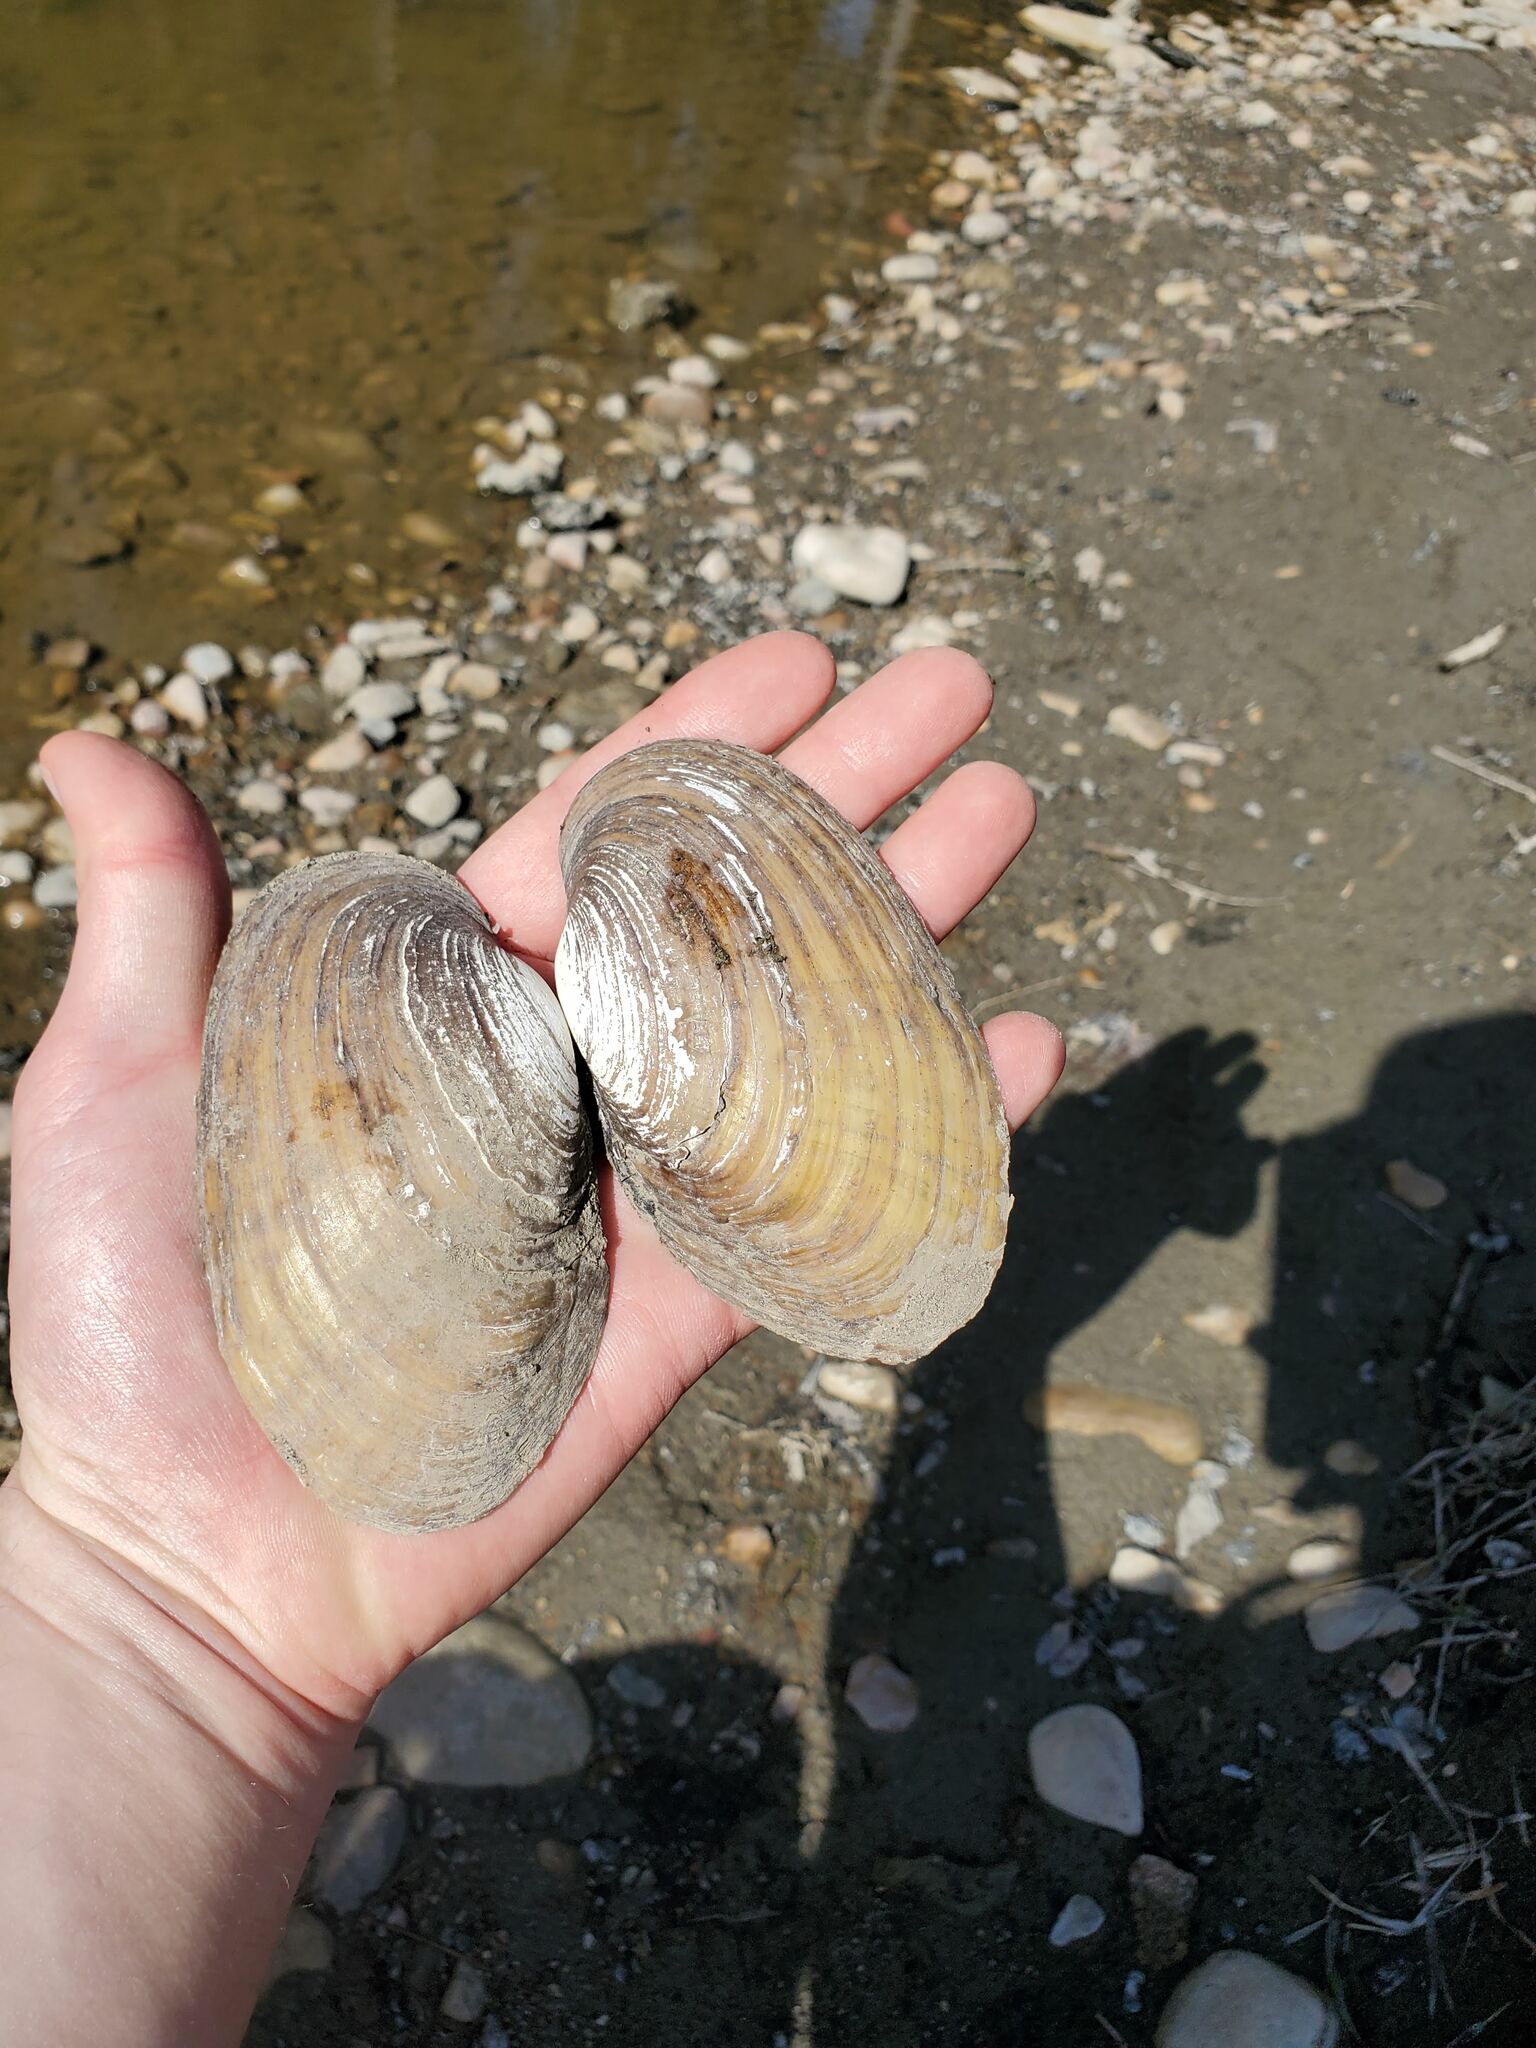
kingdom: Animalia
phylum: Mollusca
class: Bivalvia
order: Unionida
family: Unionidae
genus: Lampsilis
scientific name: Lampsilis siliquoidea
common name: Fatmucket
